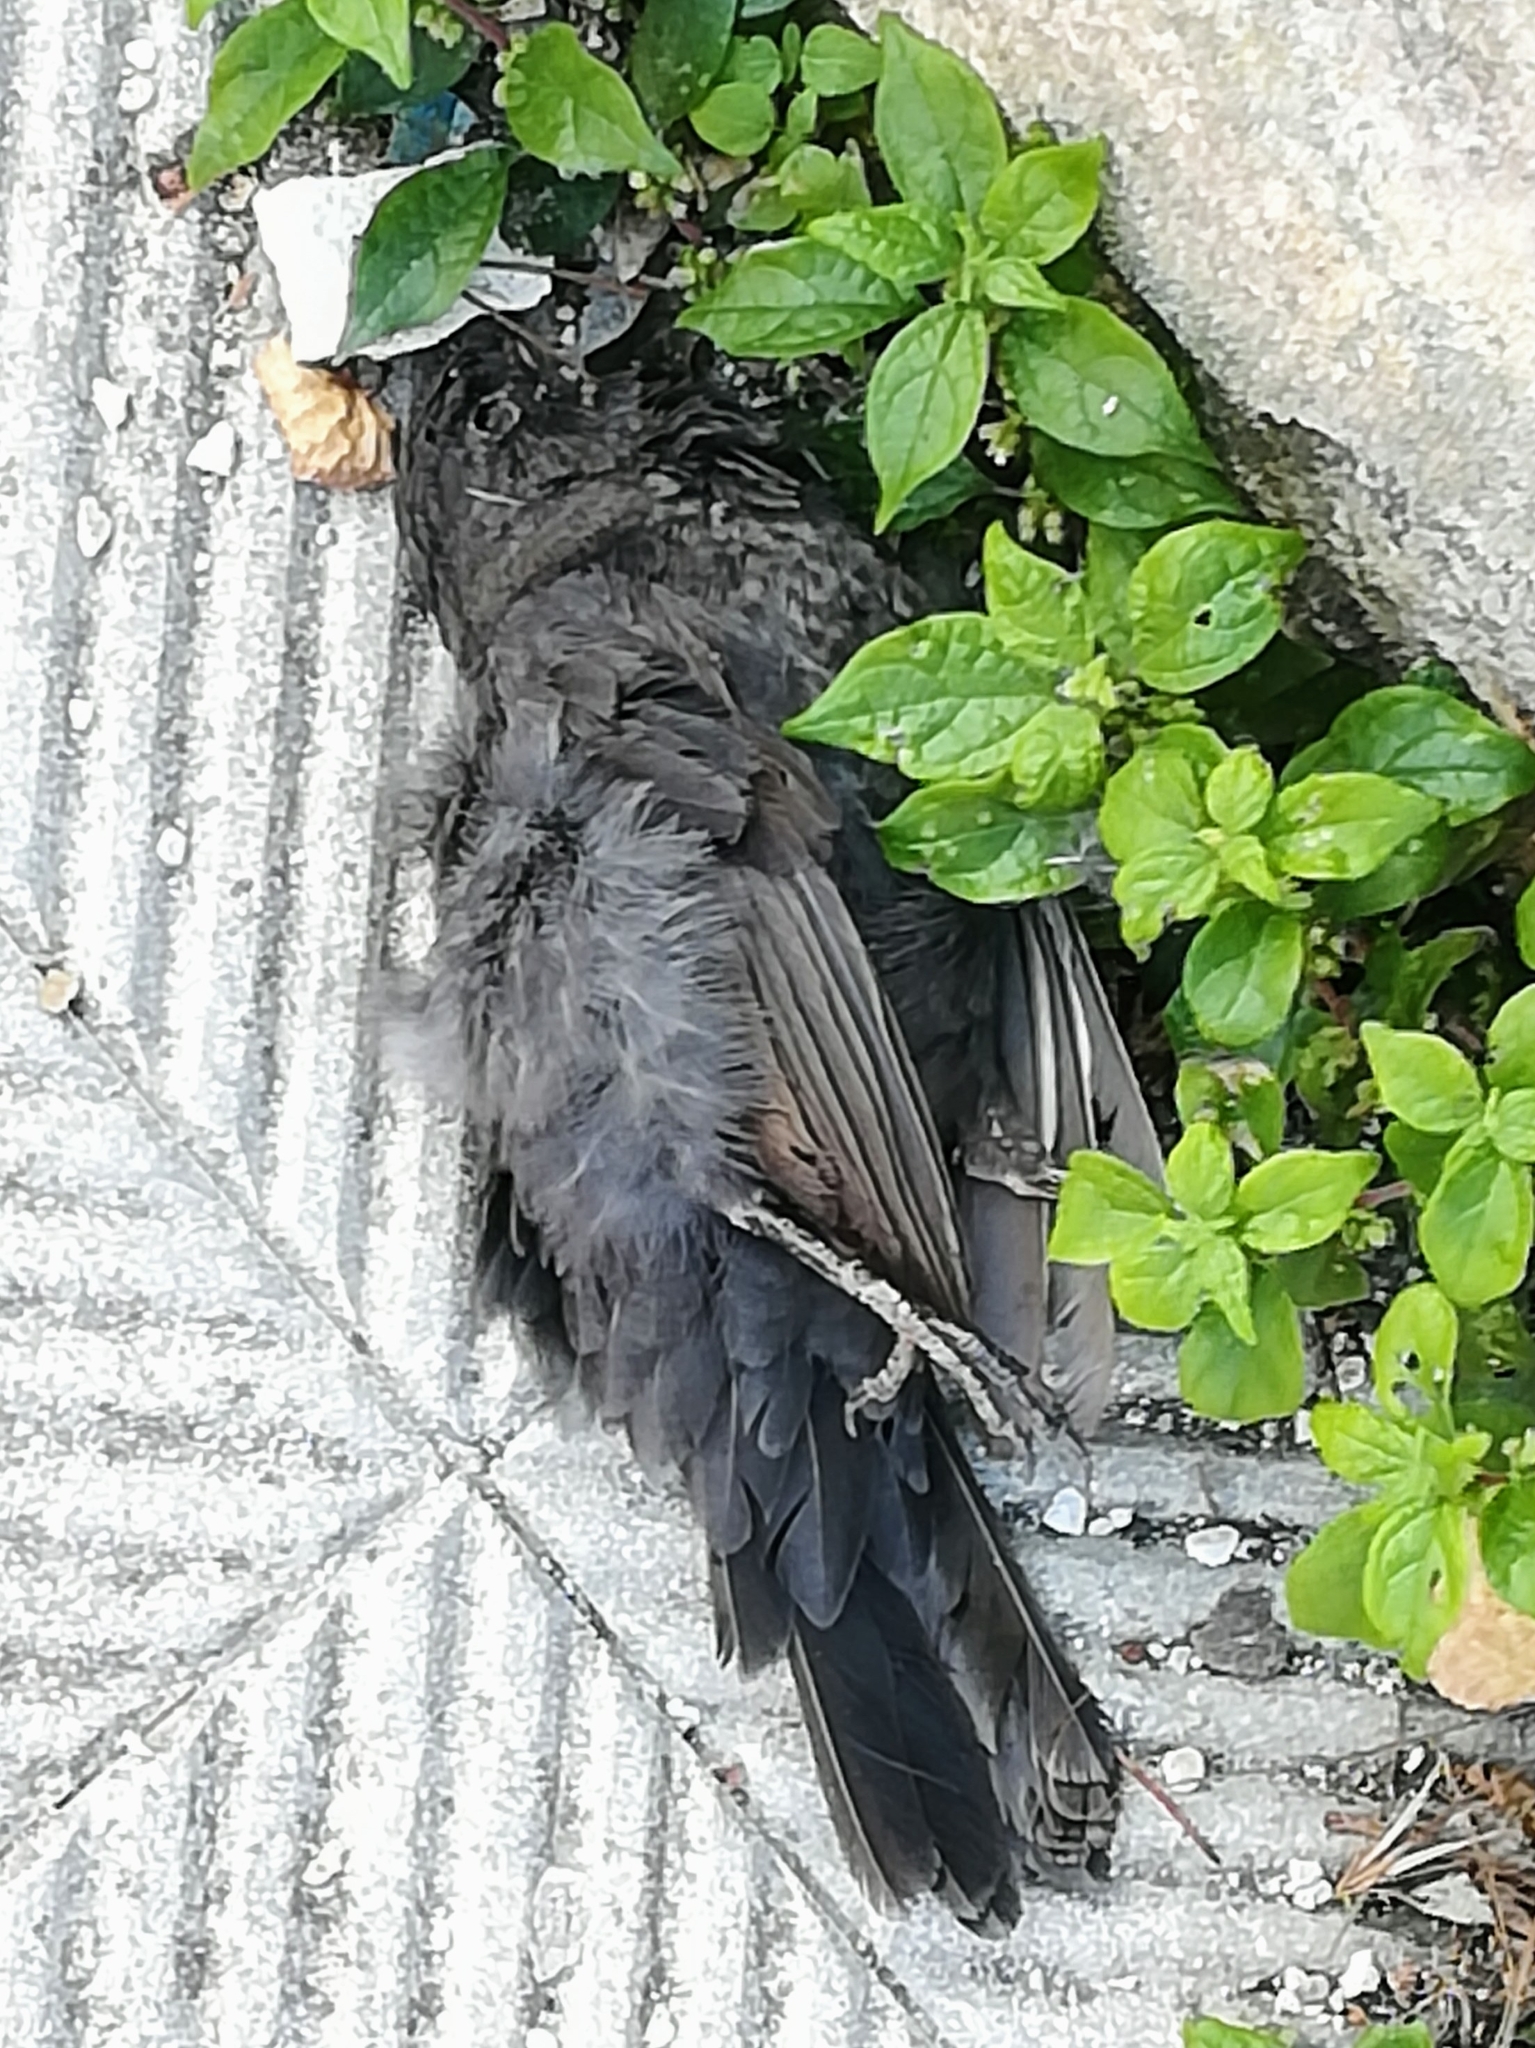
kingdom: Animalia
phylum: Chordata
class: Aves
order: Passeriformes
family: Turdidae
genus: Turdus
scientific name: Turdus merula
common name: Common blackbird
